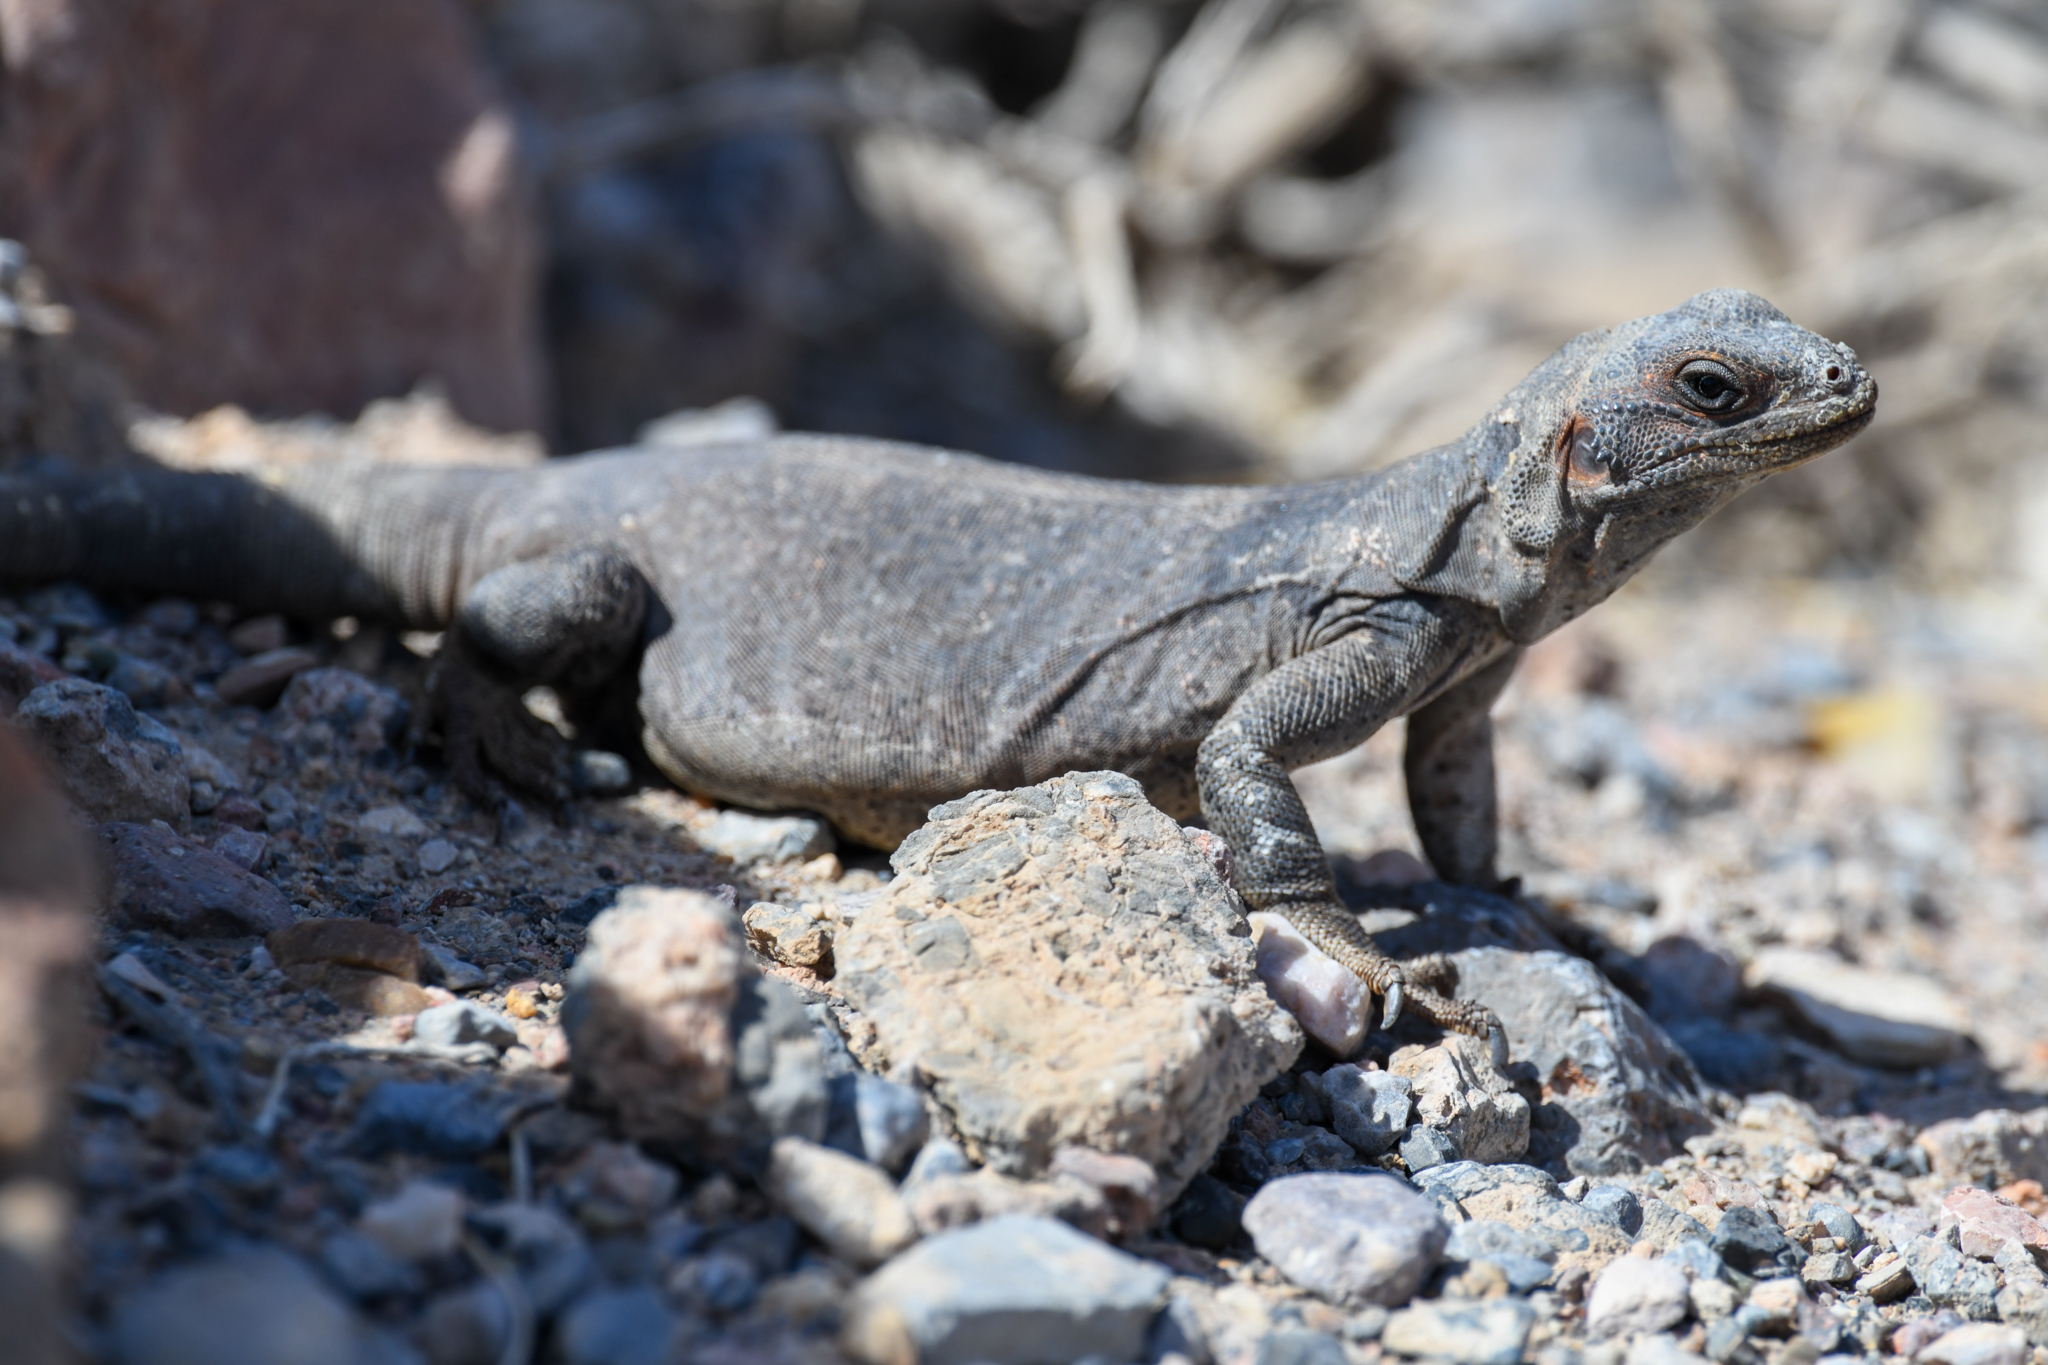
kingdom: Animalia
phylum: Chordata
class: Squamata
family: Iguanidae
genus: Sauromalus
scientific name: Sauromalus ater
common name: Northern chuckwalla
